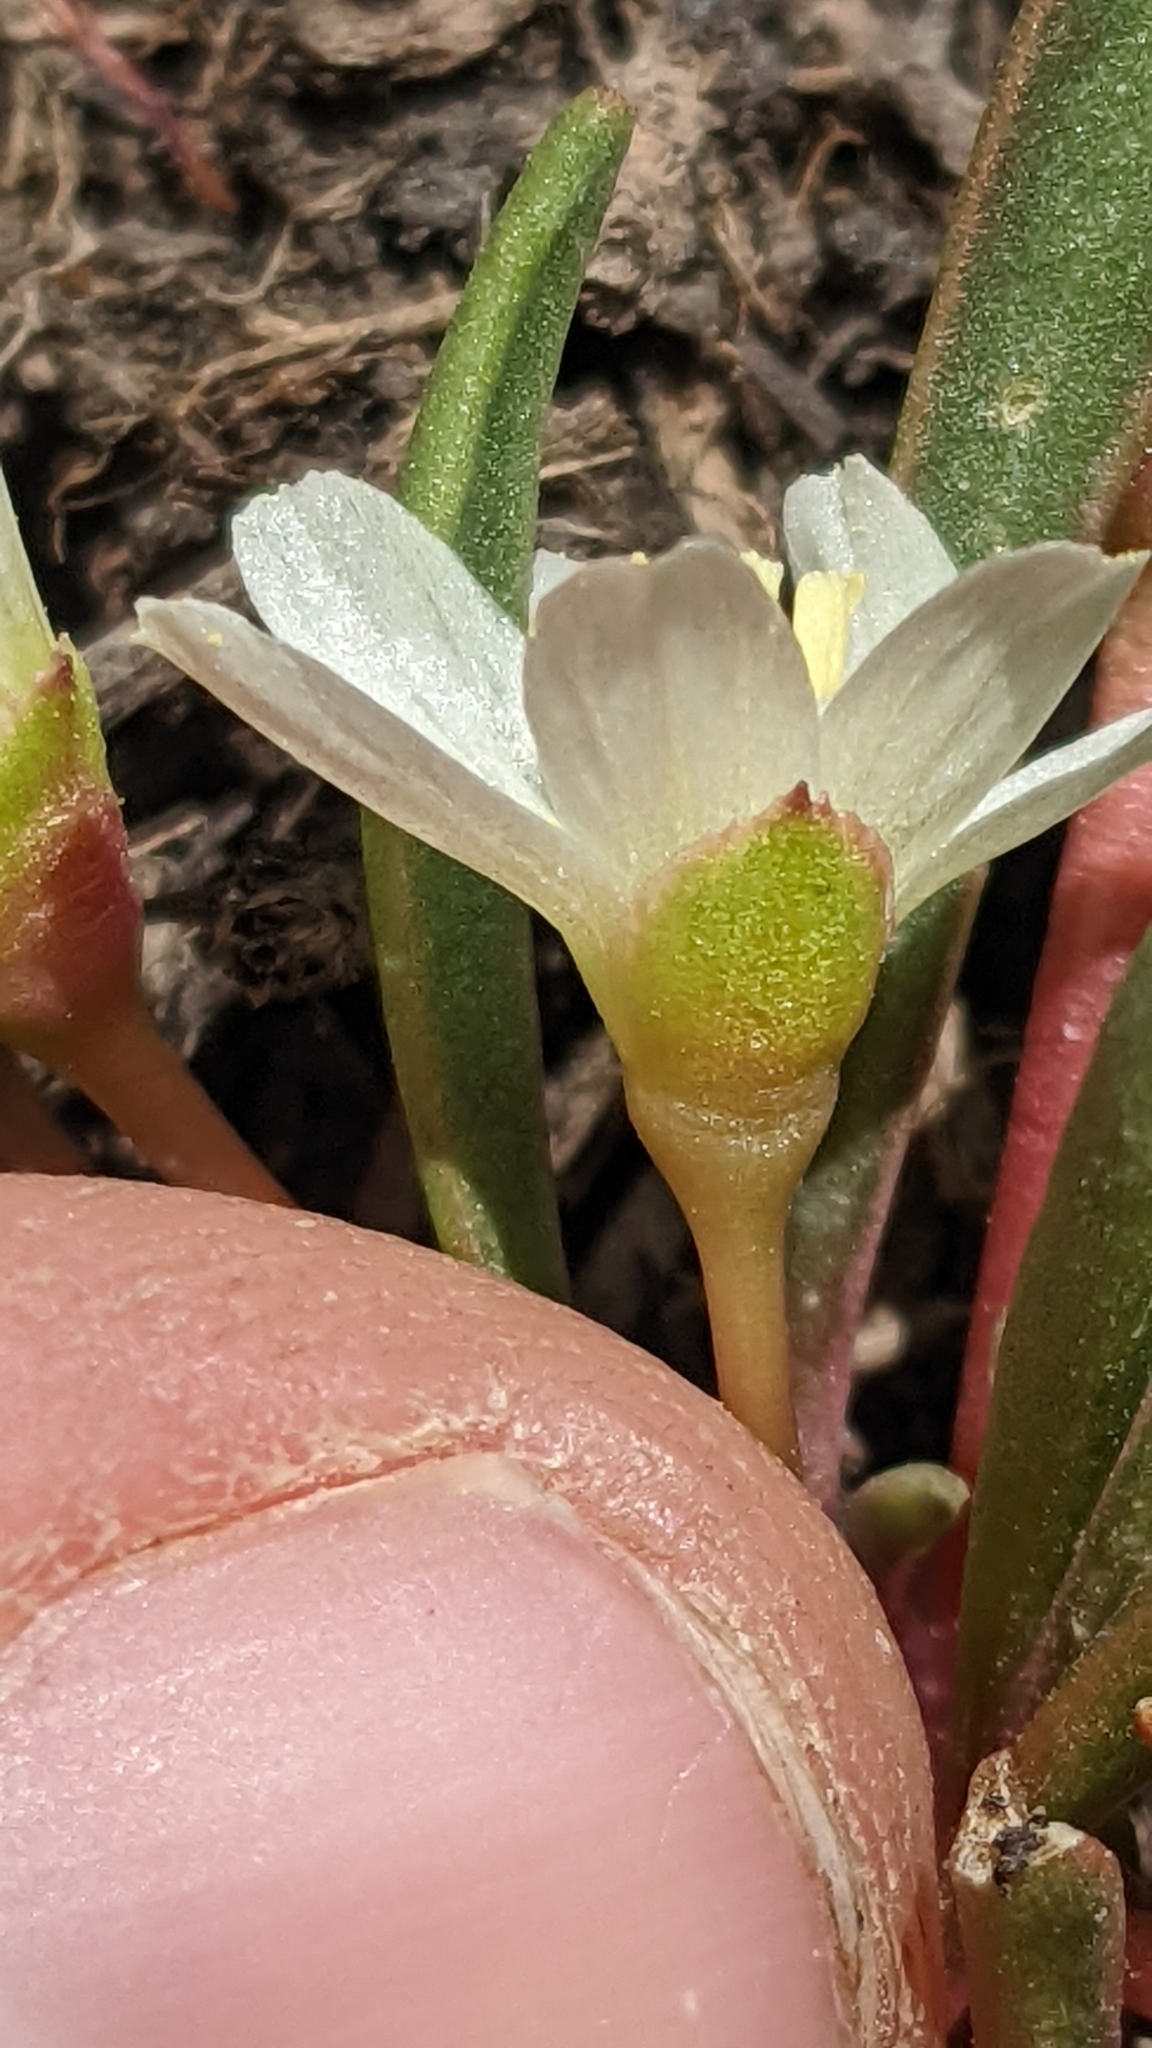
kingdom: Plantae
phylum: Tracheophyta
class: Magnoliopsida
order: Caryophyllales
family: Montiaceae
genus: Lewisia
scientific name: Lewisia pygmaea
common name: Alpine bitterroot
